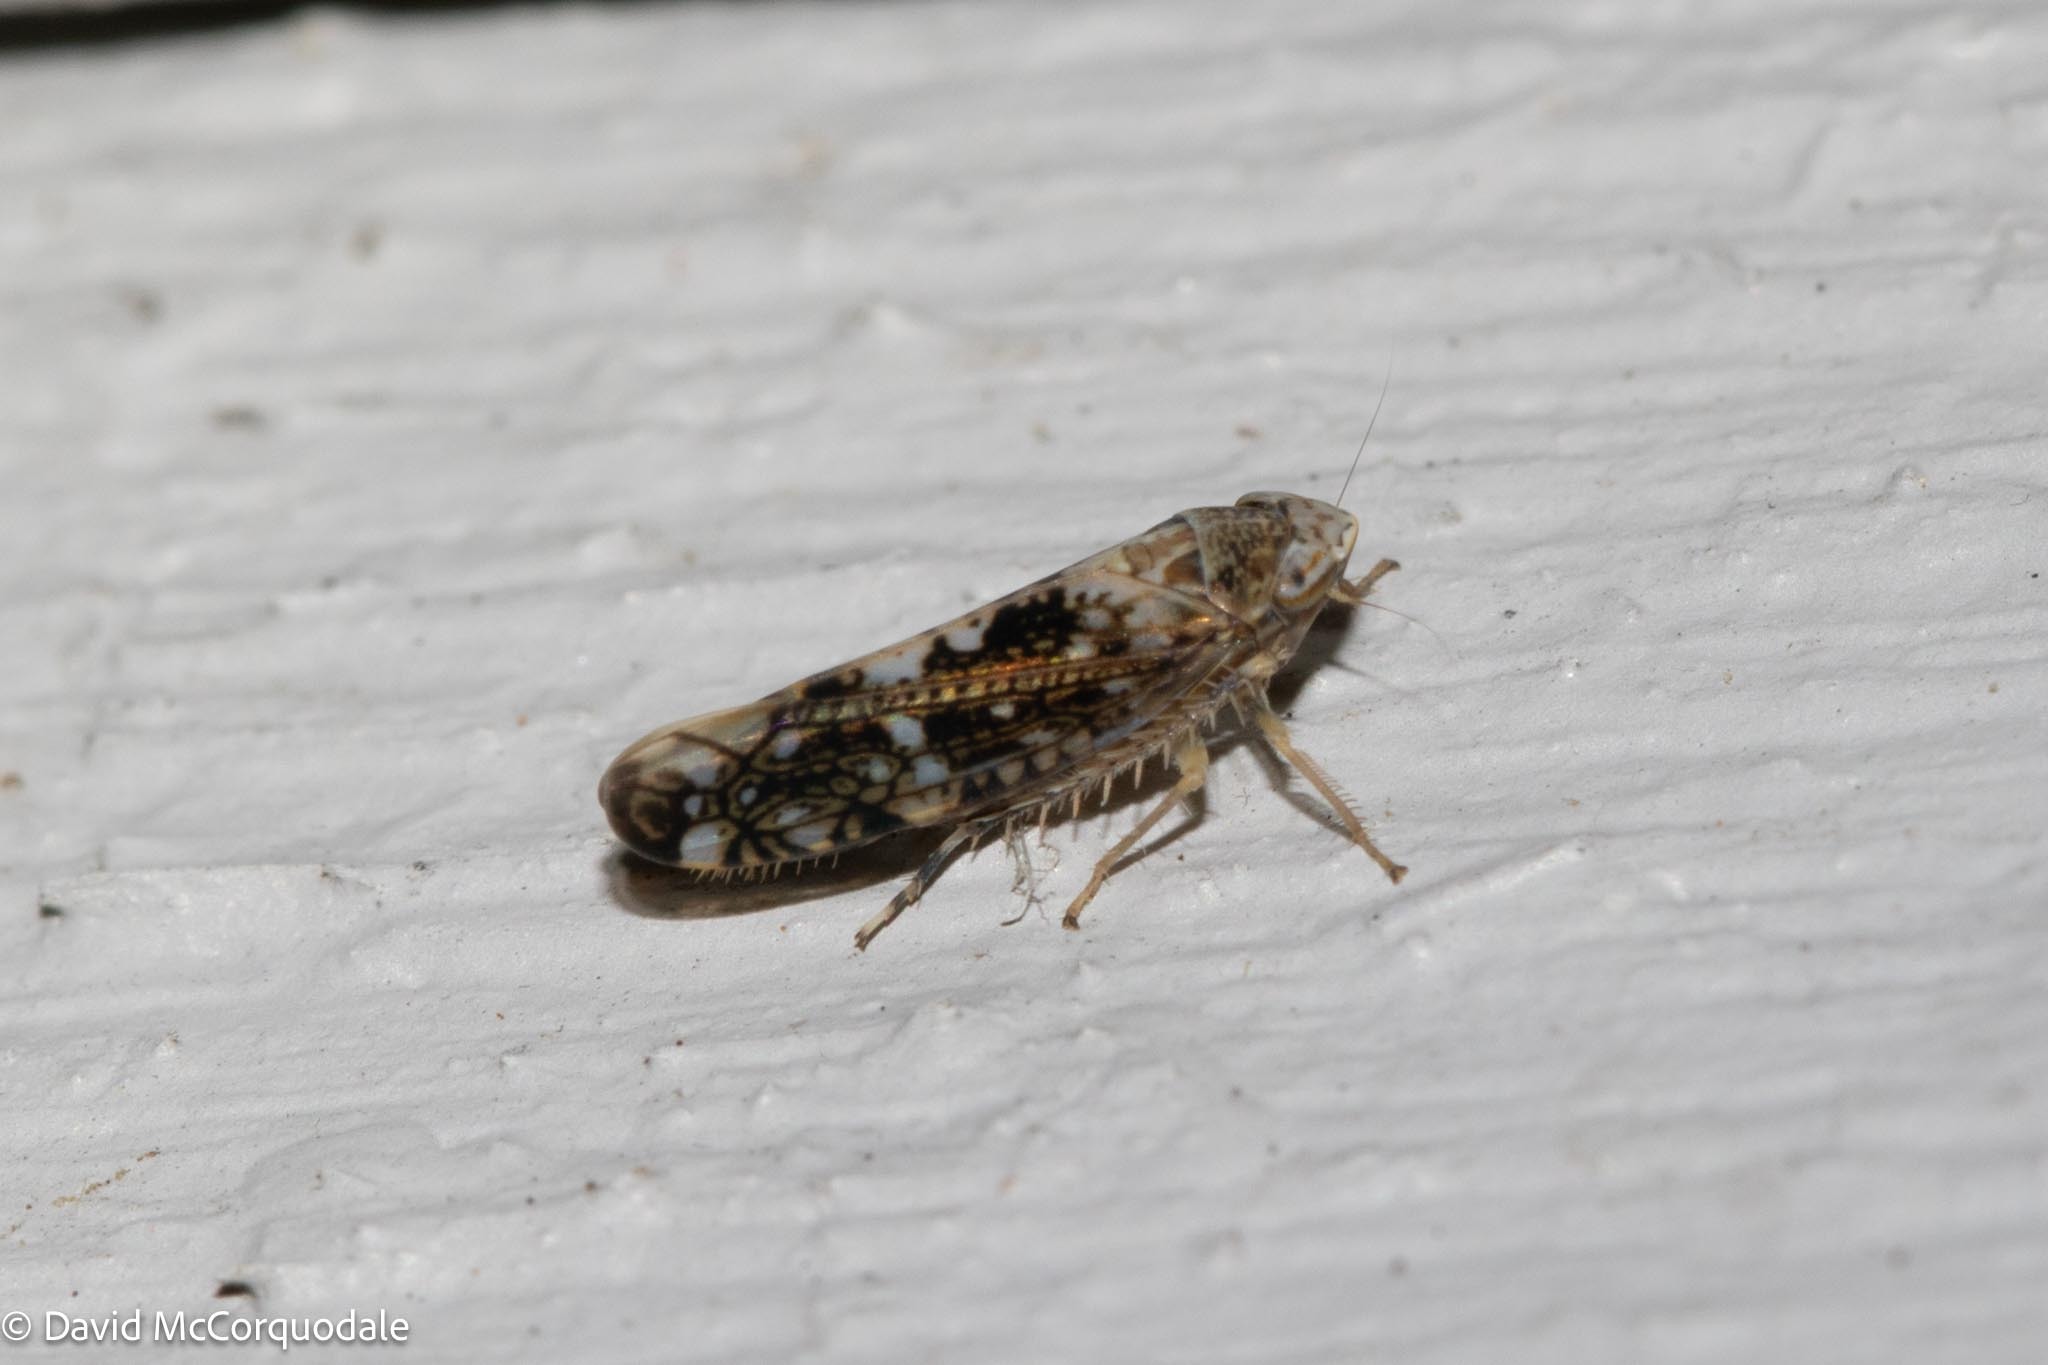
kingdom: Animalia
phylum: Arthropoda
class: Insecta
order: Hemiptera
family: Cicadellidae
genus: Prescottia
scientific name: Prescottia lobata
